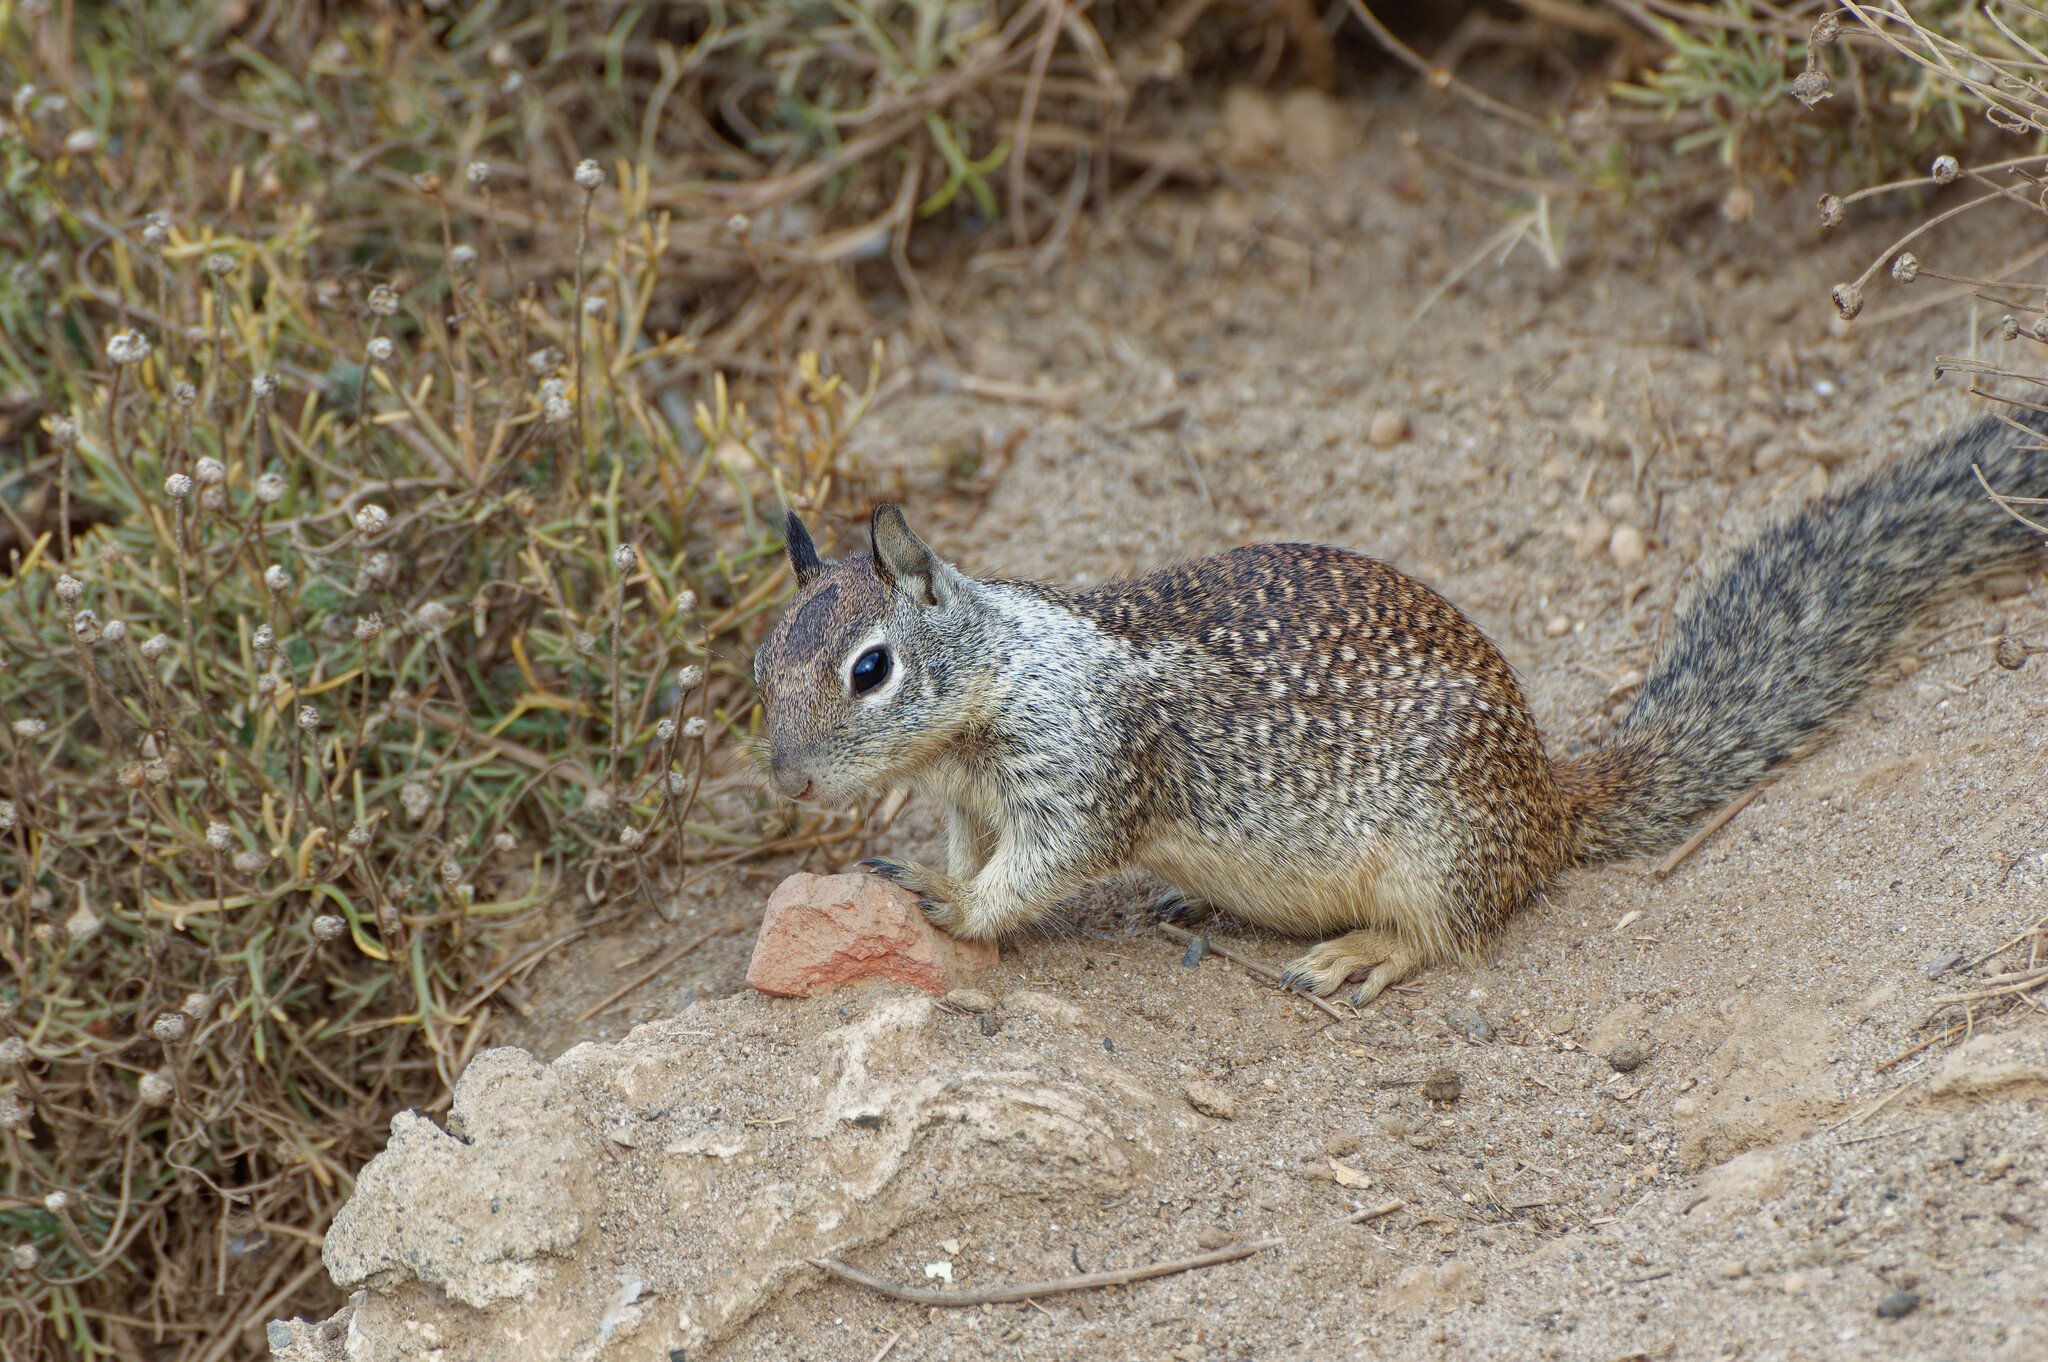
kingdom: Animalia
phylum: Chordata
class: Mammalia
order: Rodentia
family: Sciuridae
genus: Otospermophilus
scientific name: Otospermophilus beecheyi
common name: California ground squirrel
